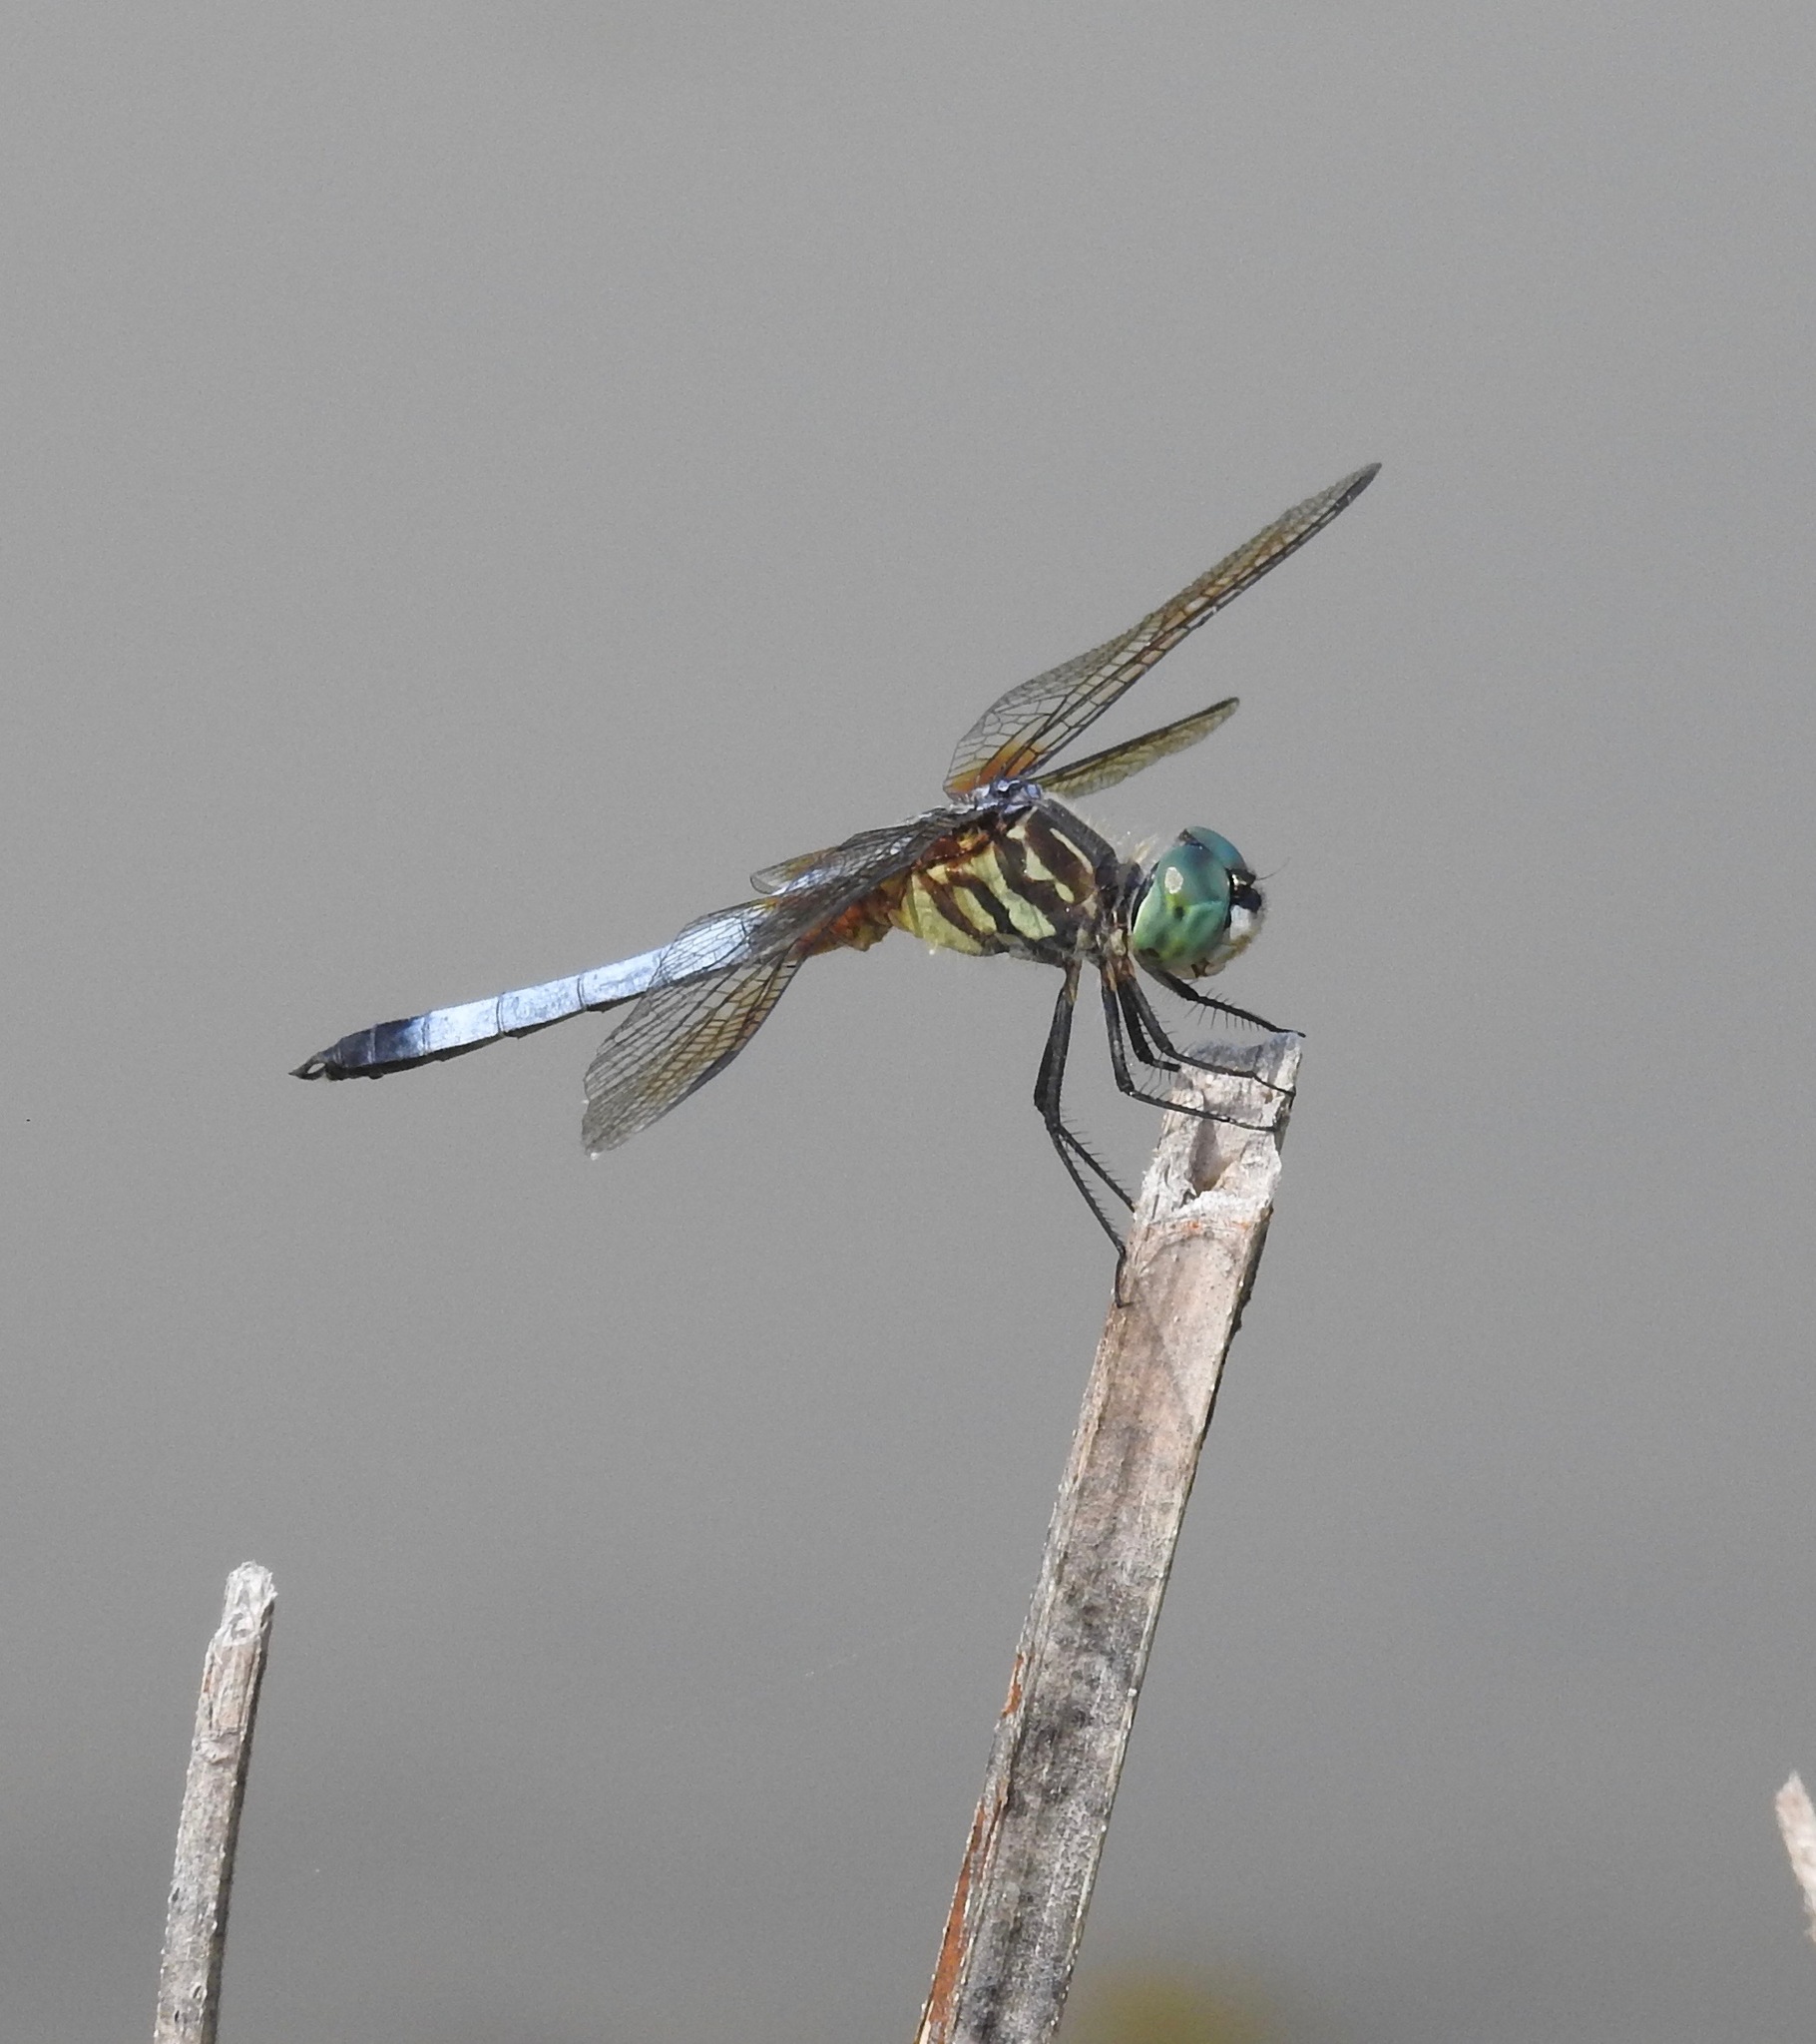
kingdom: Animalia
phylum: Arthropoda
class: Insecta
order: Odonata
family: Libellulidae
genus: Pachydiplax
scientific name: Pachydiplax longipennis
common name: Blue dasher
